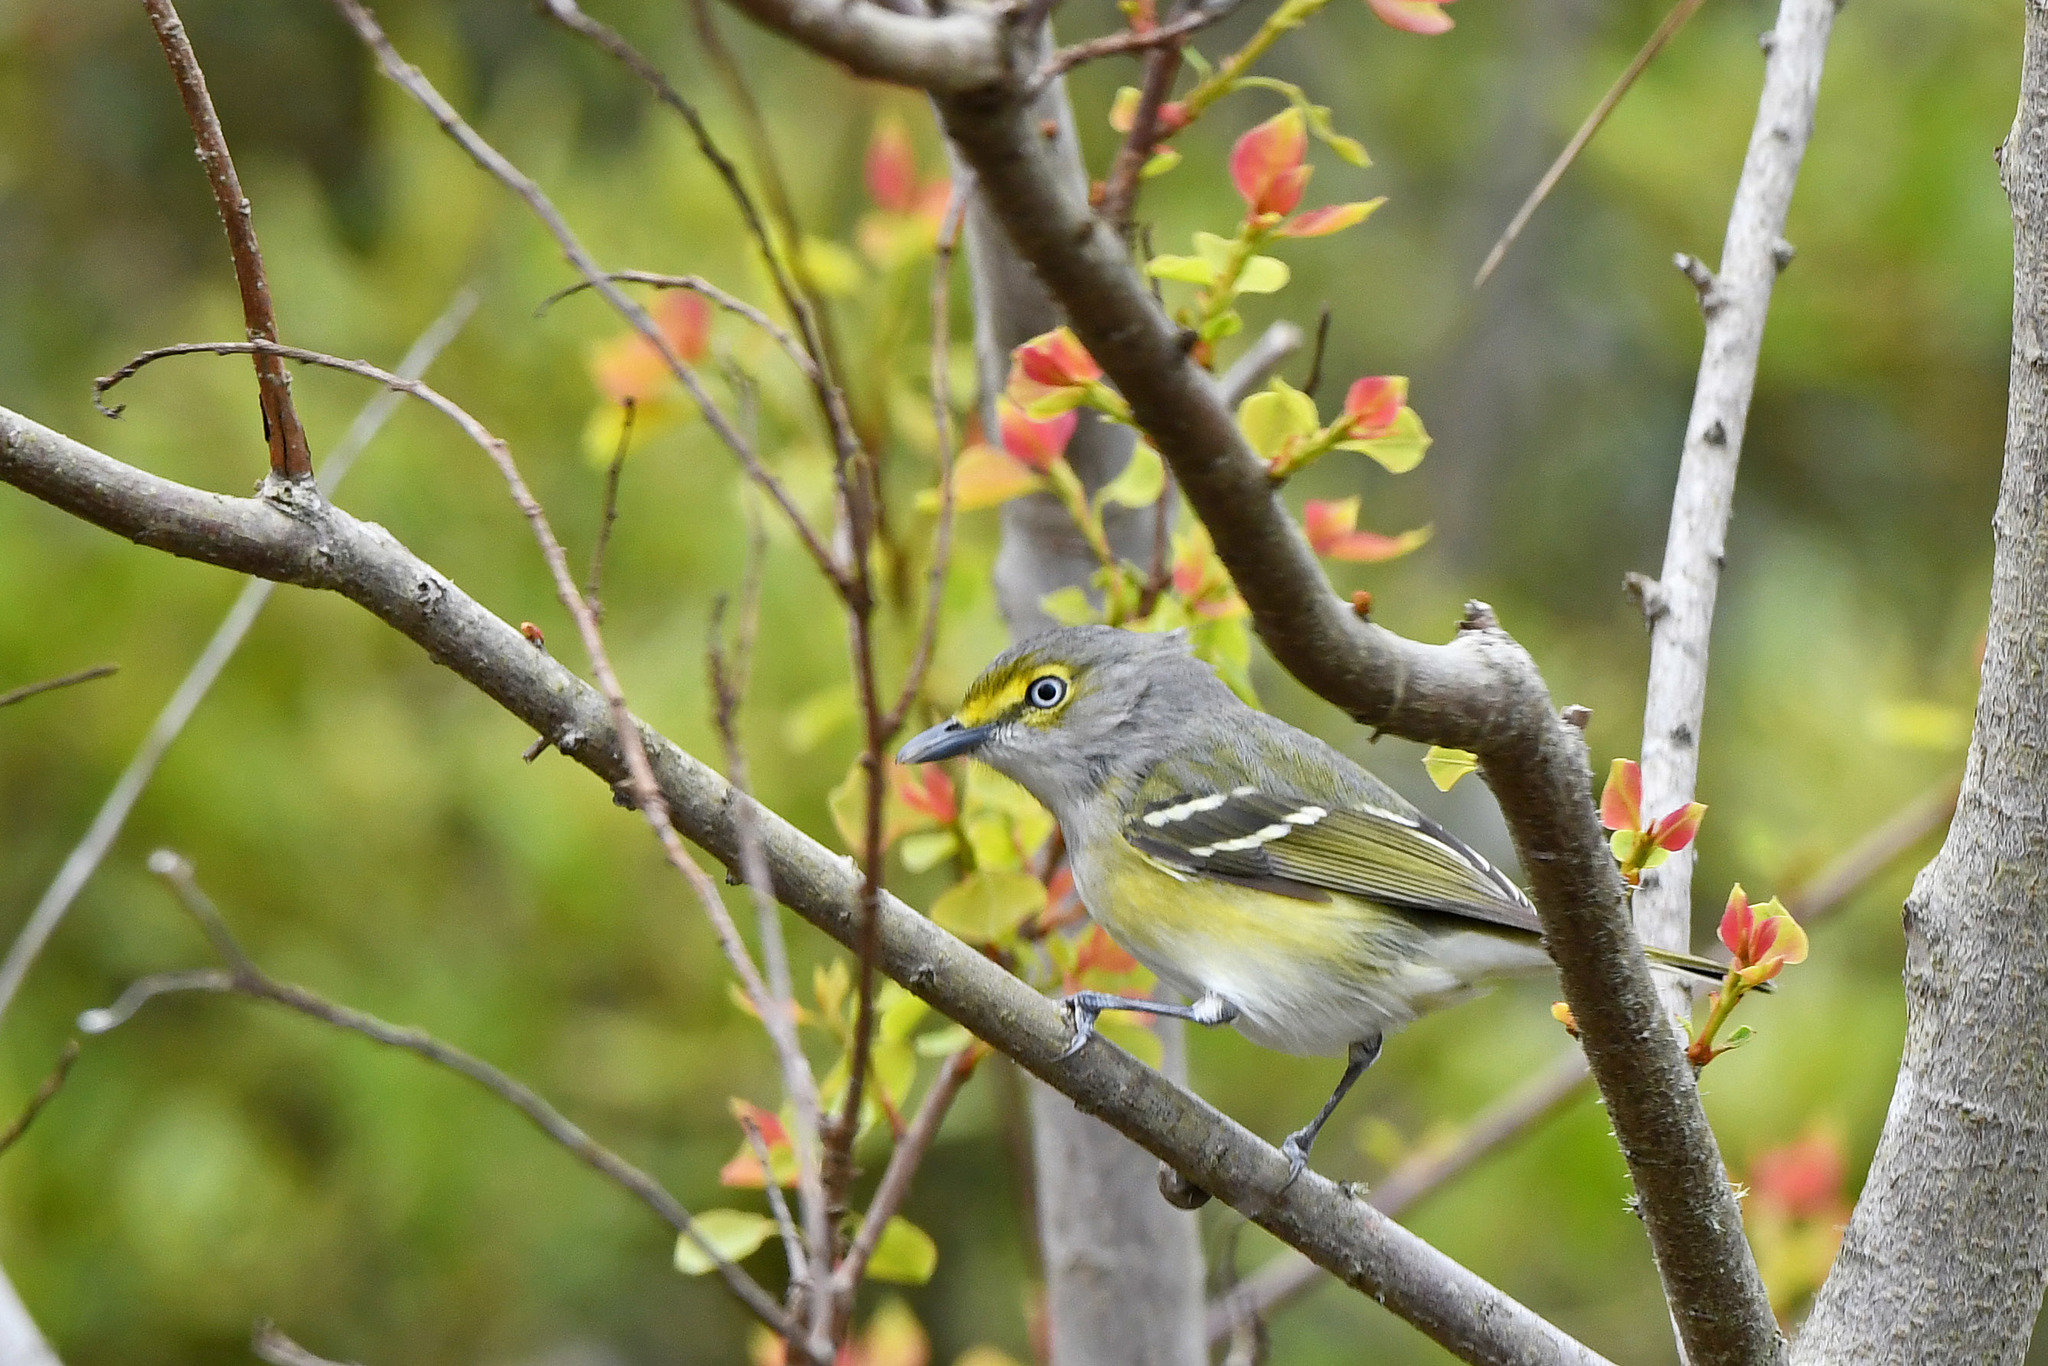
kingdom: Animalia
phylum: Chordata
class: Aves
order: Passeriformes
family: Vireonidae
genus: Vireo
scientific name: Vireo griseus
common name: White-eyed vireo
